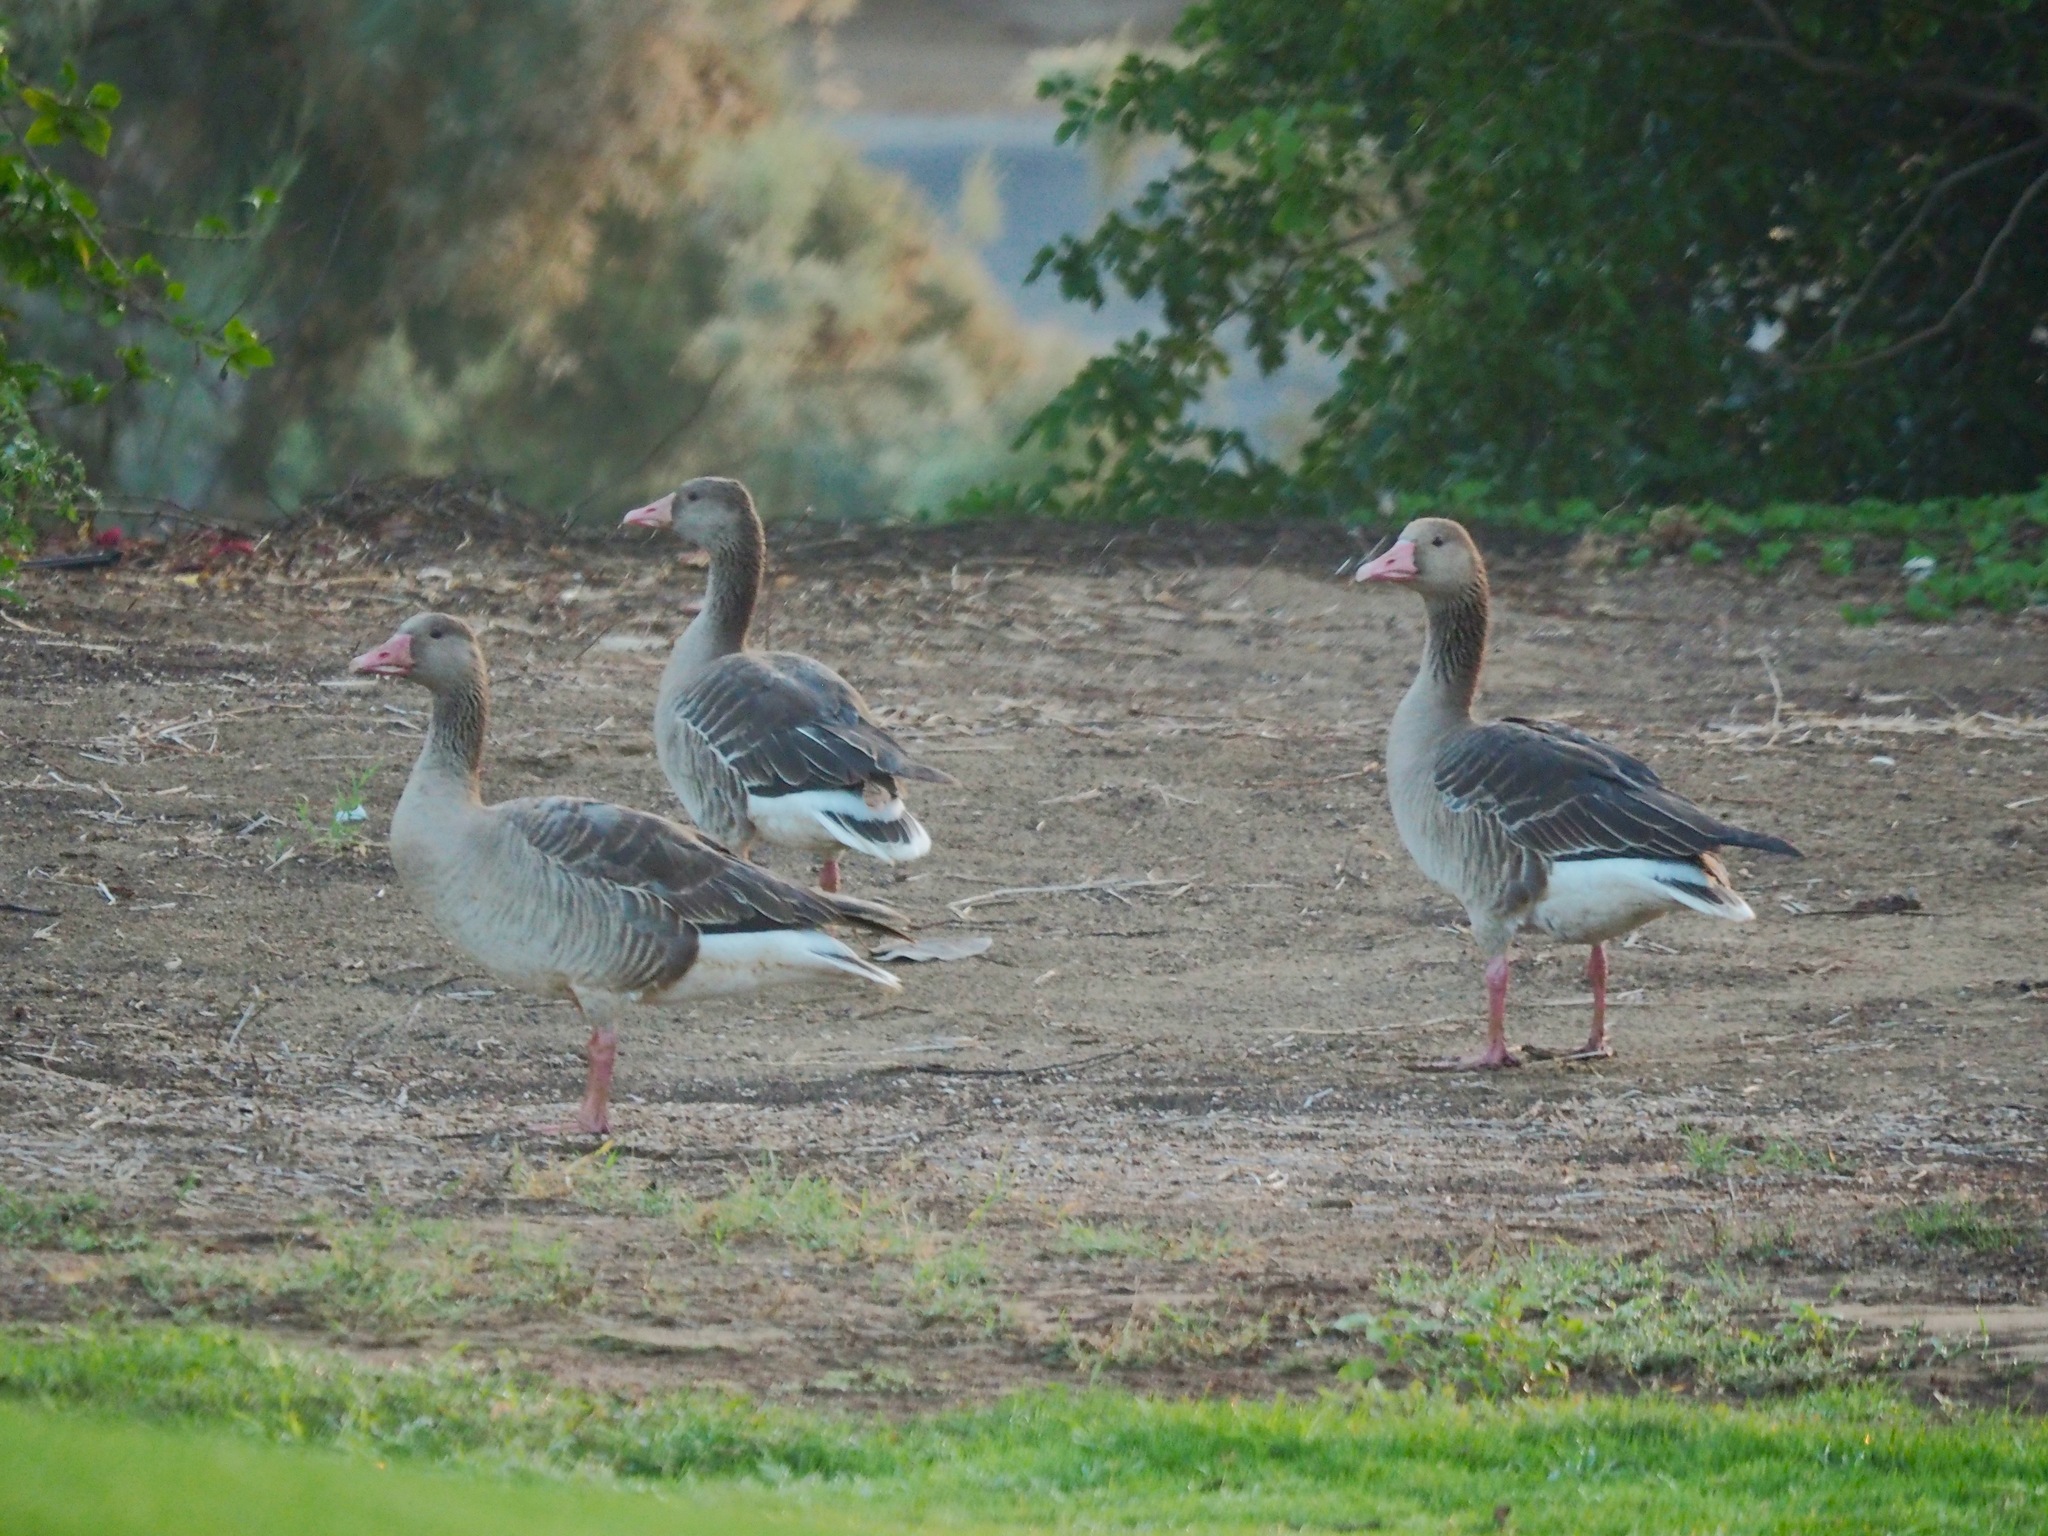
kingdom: Animalia
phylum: Chordata
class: Aves
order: Anseriformes
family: Anatidae
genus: Anser
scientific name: Anser anser
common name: Greylag goose
